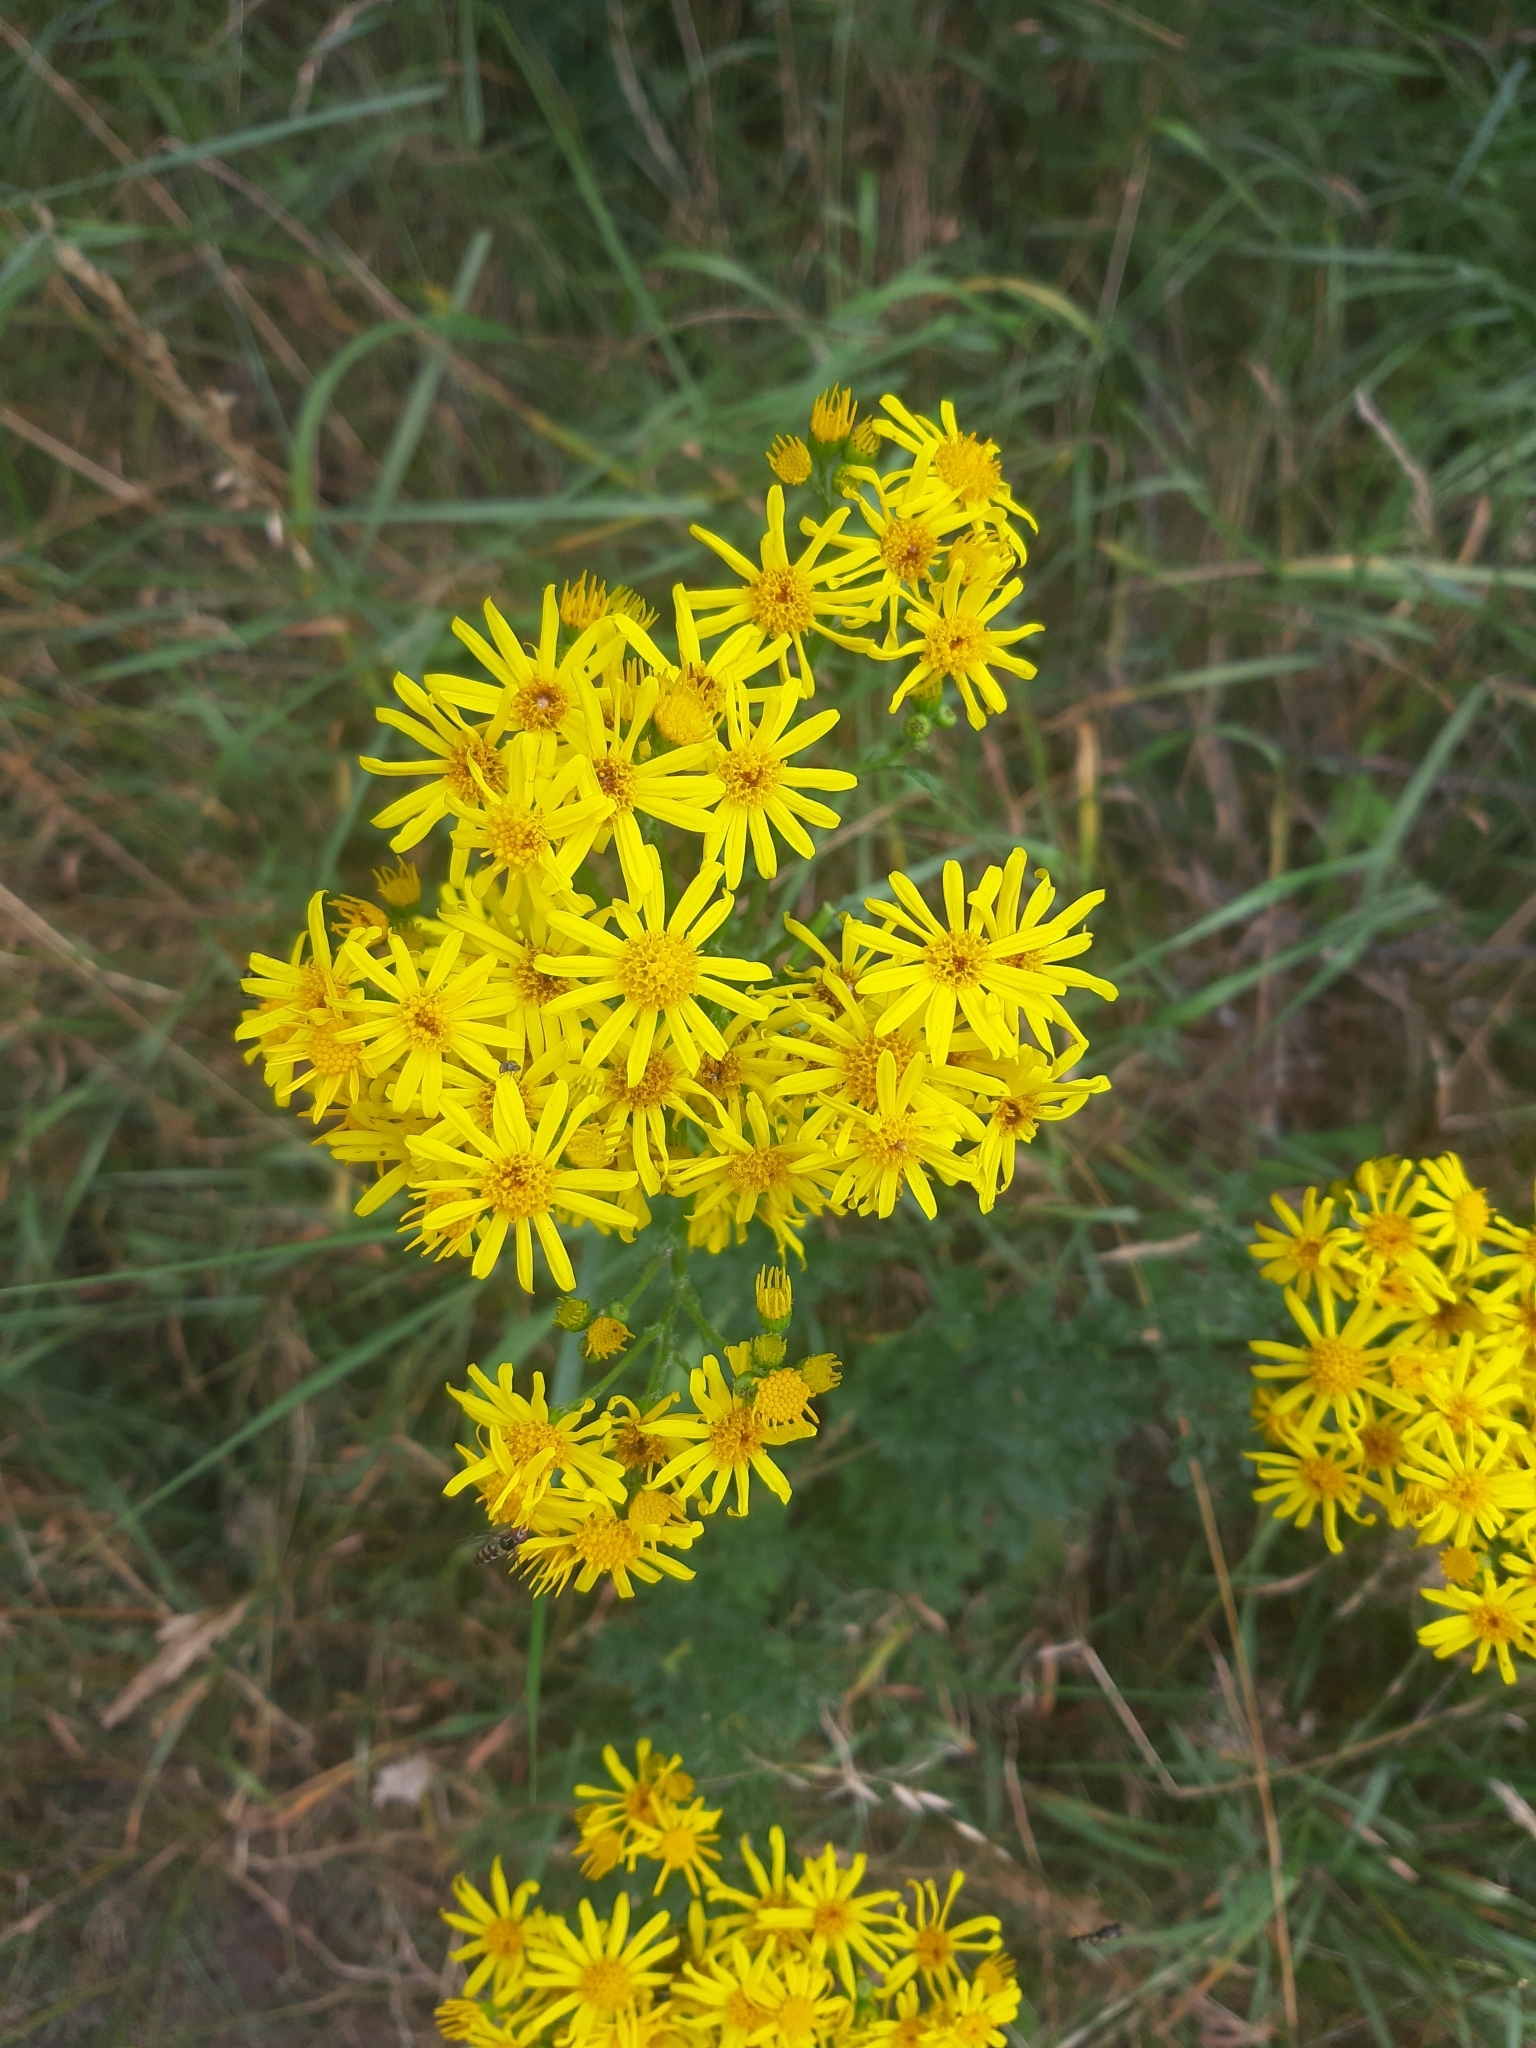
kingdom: Plantae
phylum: Tracheophyta
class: Magnoliopsida
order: Asterales
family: Asteraceae
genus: Jacobaea
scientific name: Jacobaea vulgaris
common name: Stinking willie
